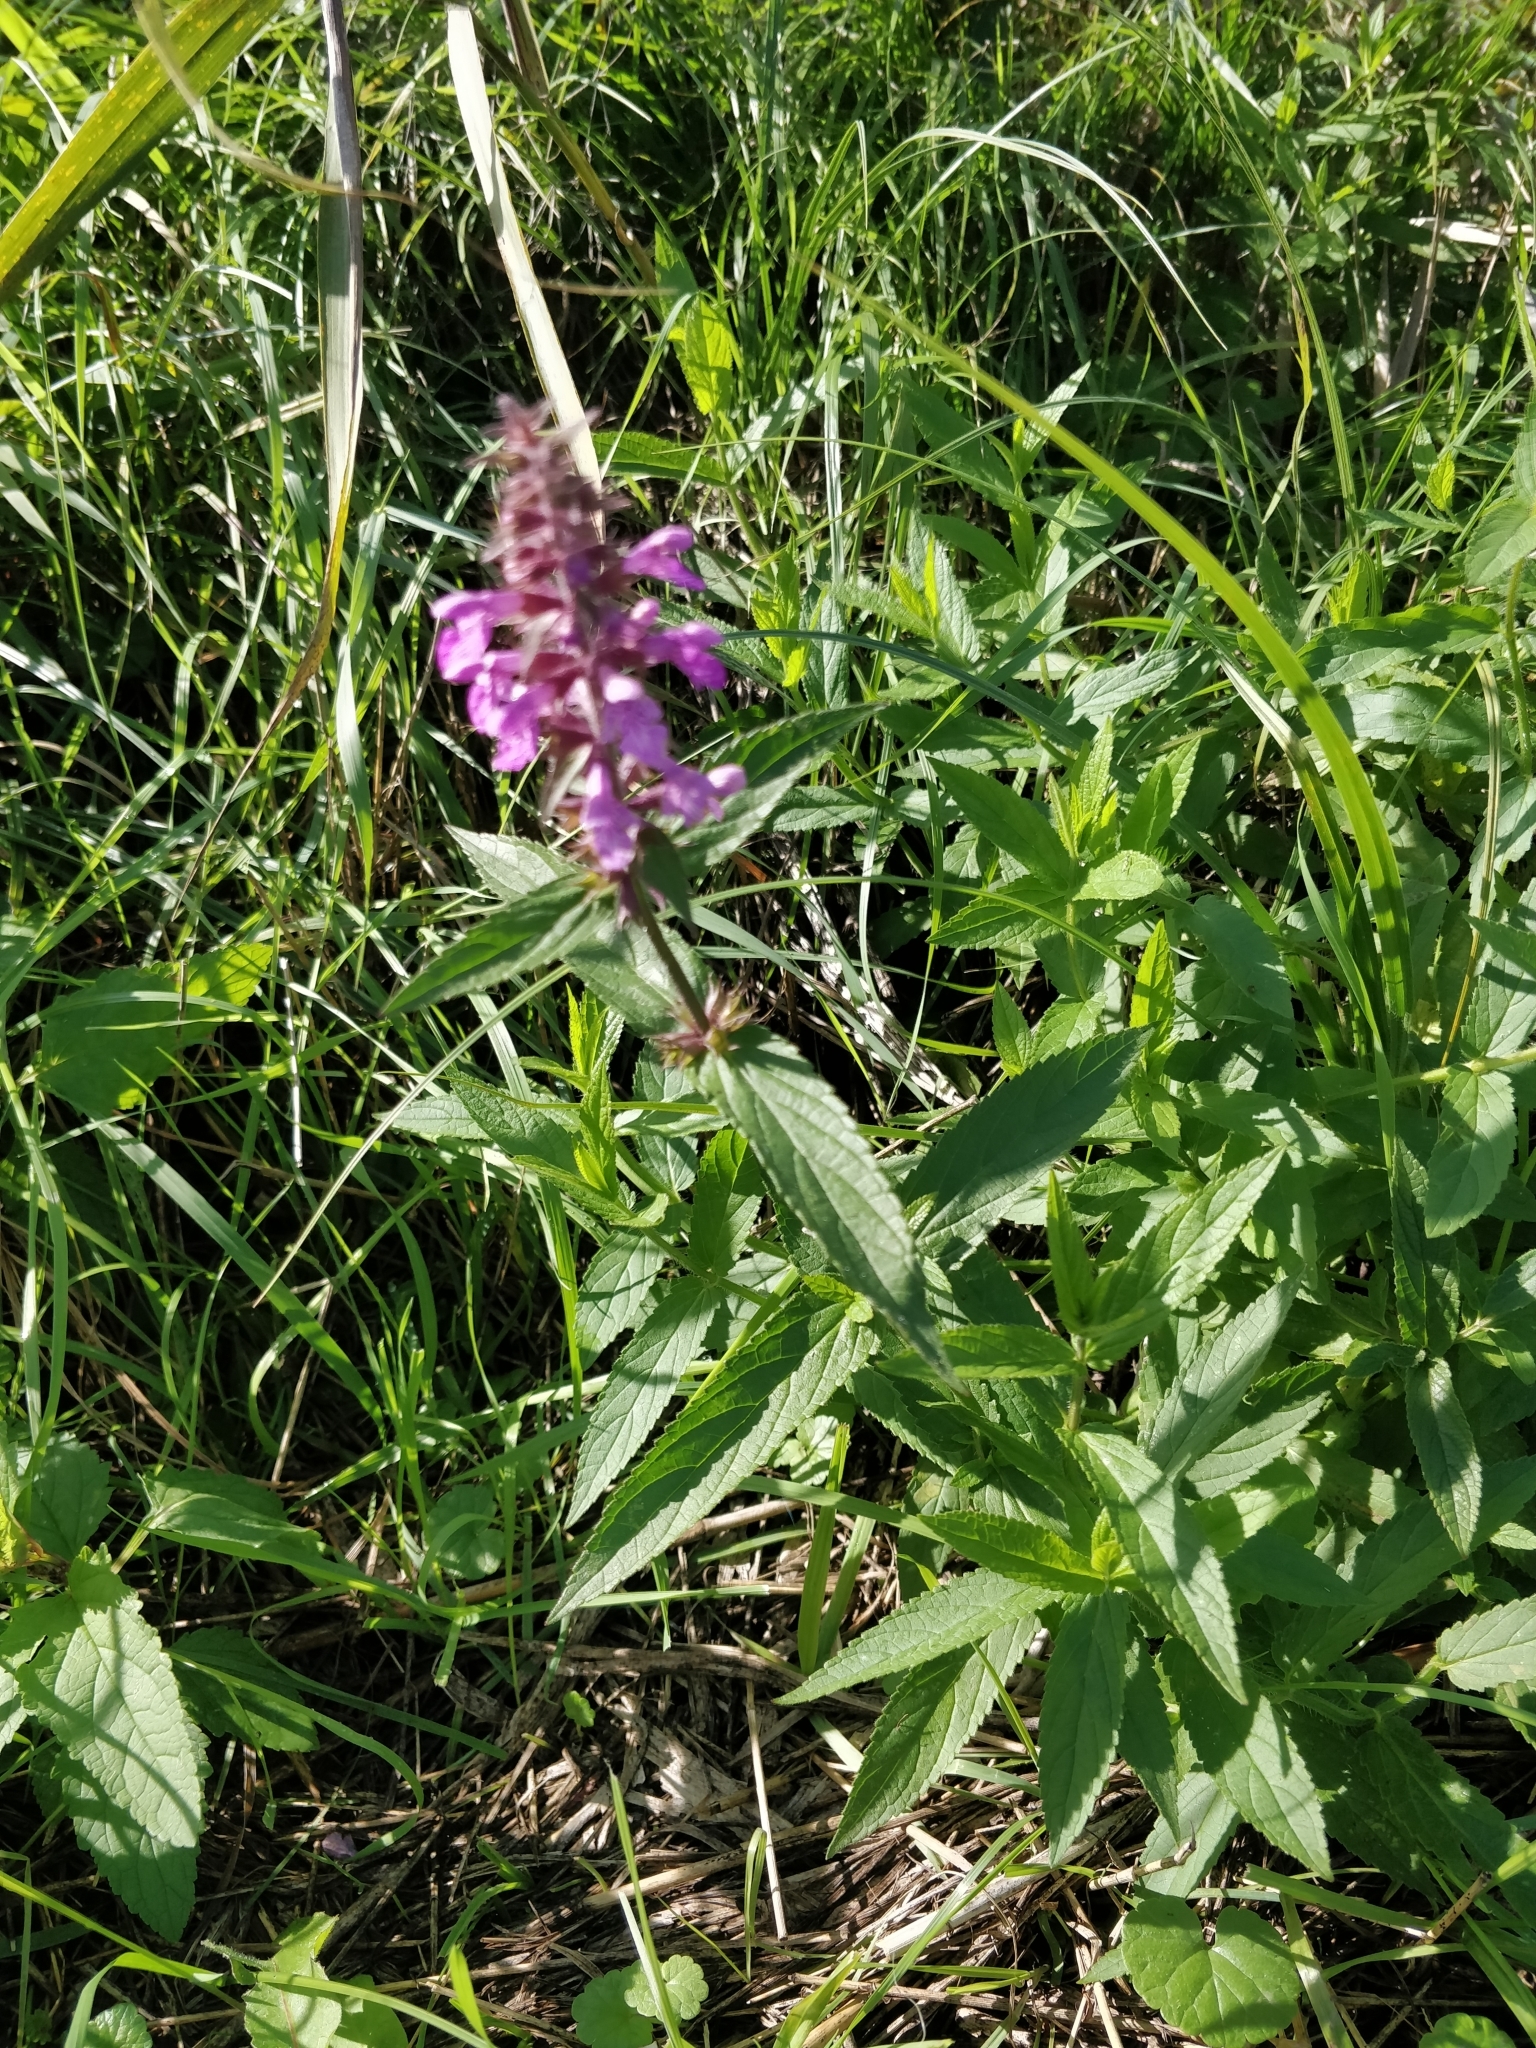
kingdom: Plantae
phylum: Tracheophyta
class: Magnoliopsida
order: Lamiales
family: Lamiaceae
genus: Stachys
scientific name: Stachys palustris
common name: Marsh woundwort
